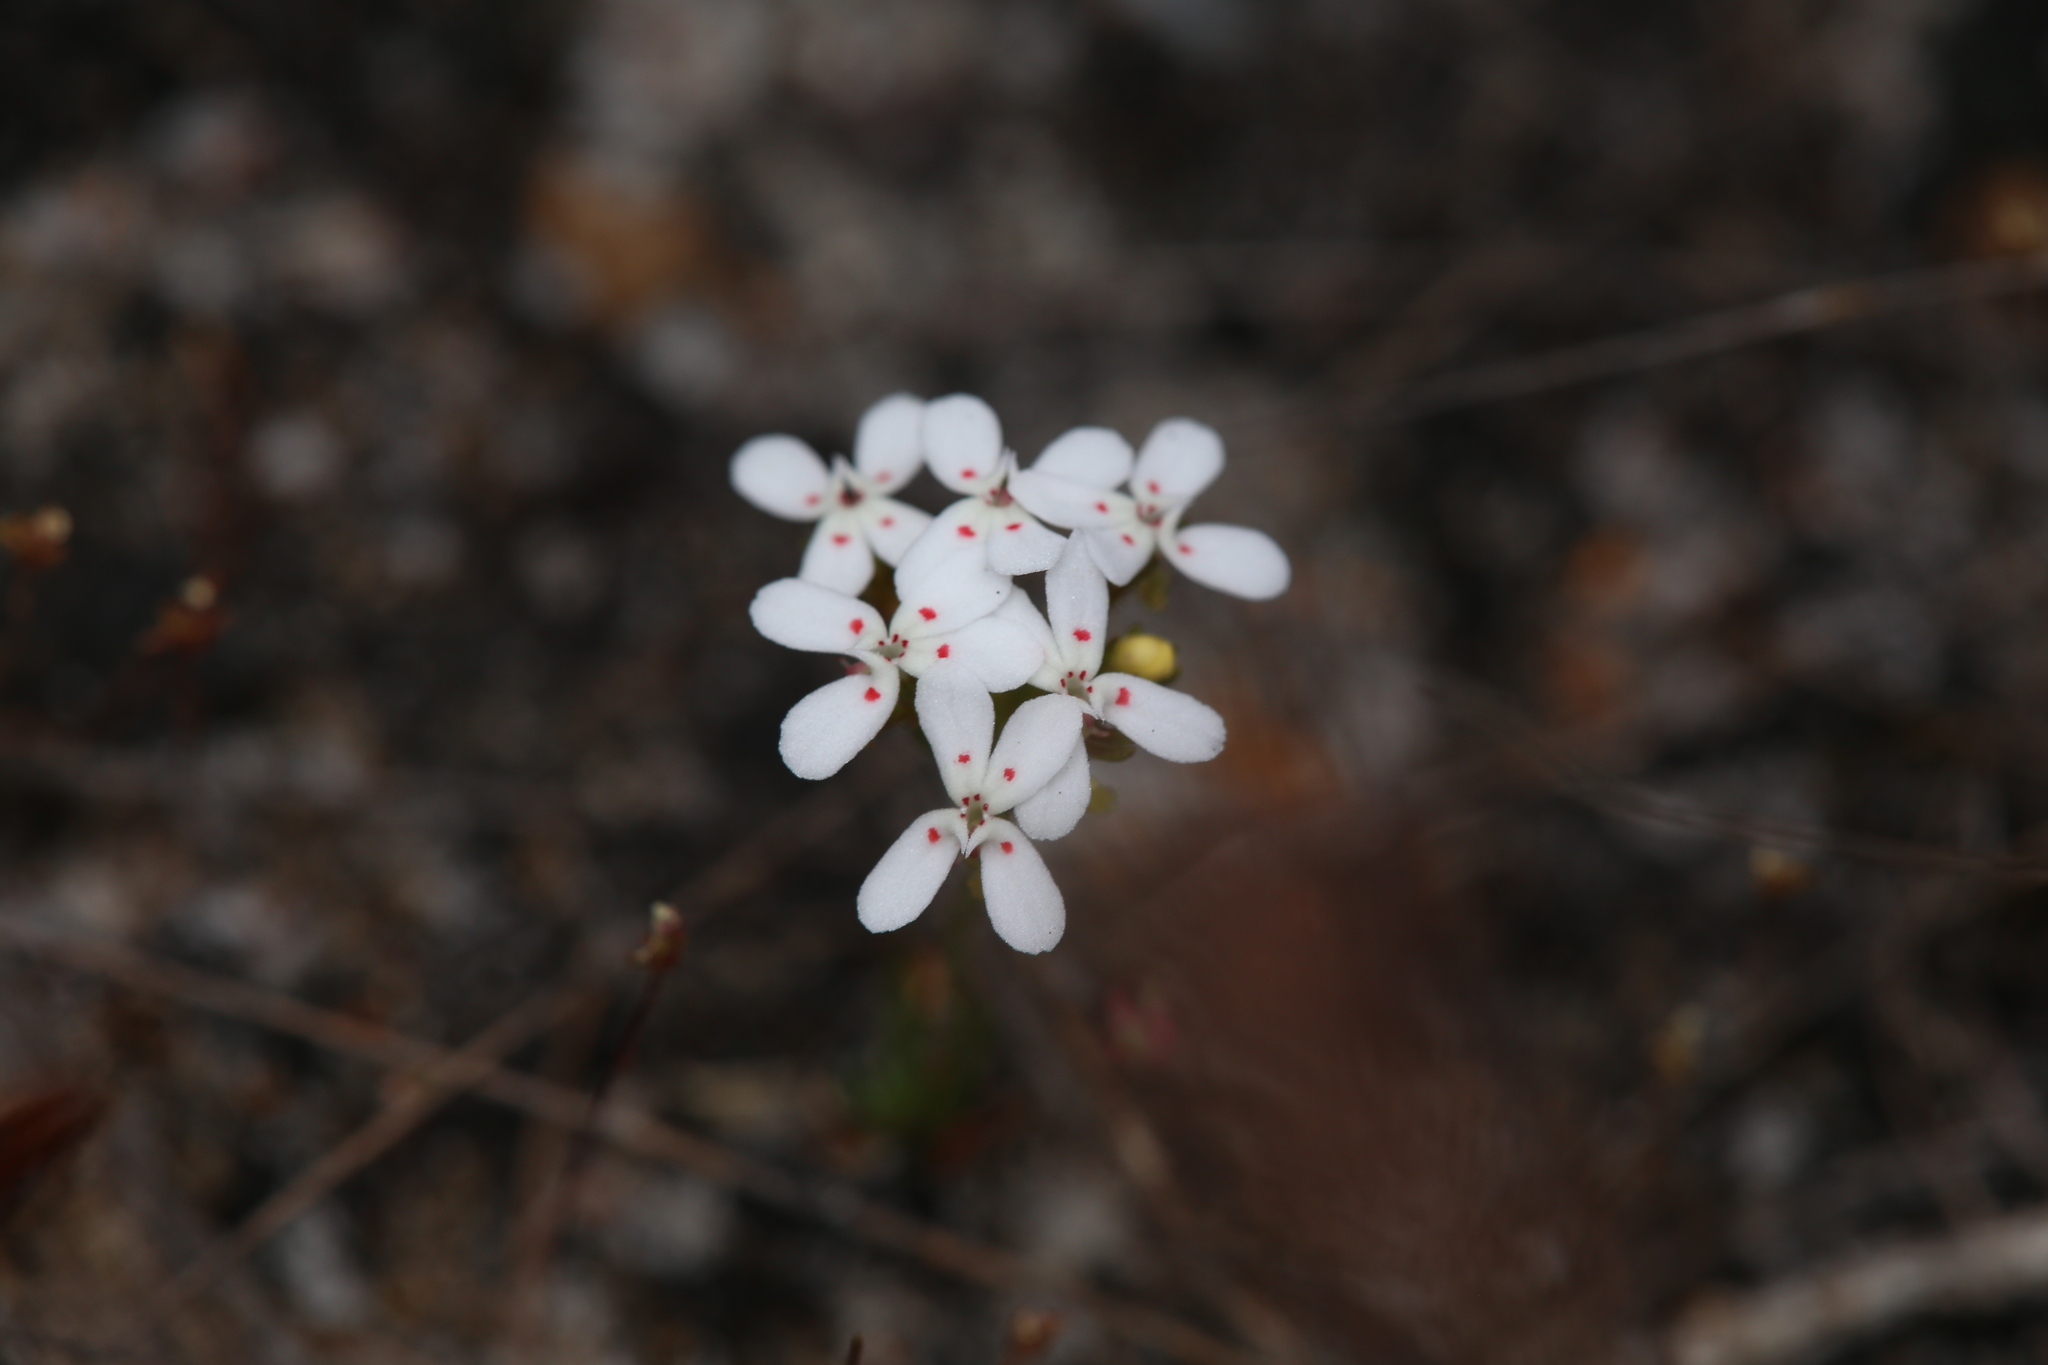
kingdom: Plantae
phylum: Tracheophyta
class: Magnoliopsida
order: Asterales
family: Stylidiaceae
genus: Stylidium
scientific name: Stylidium guttatum
